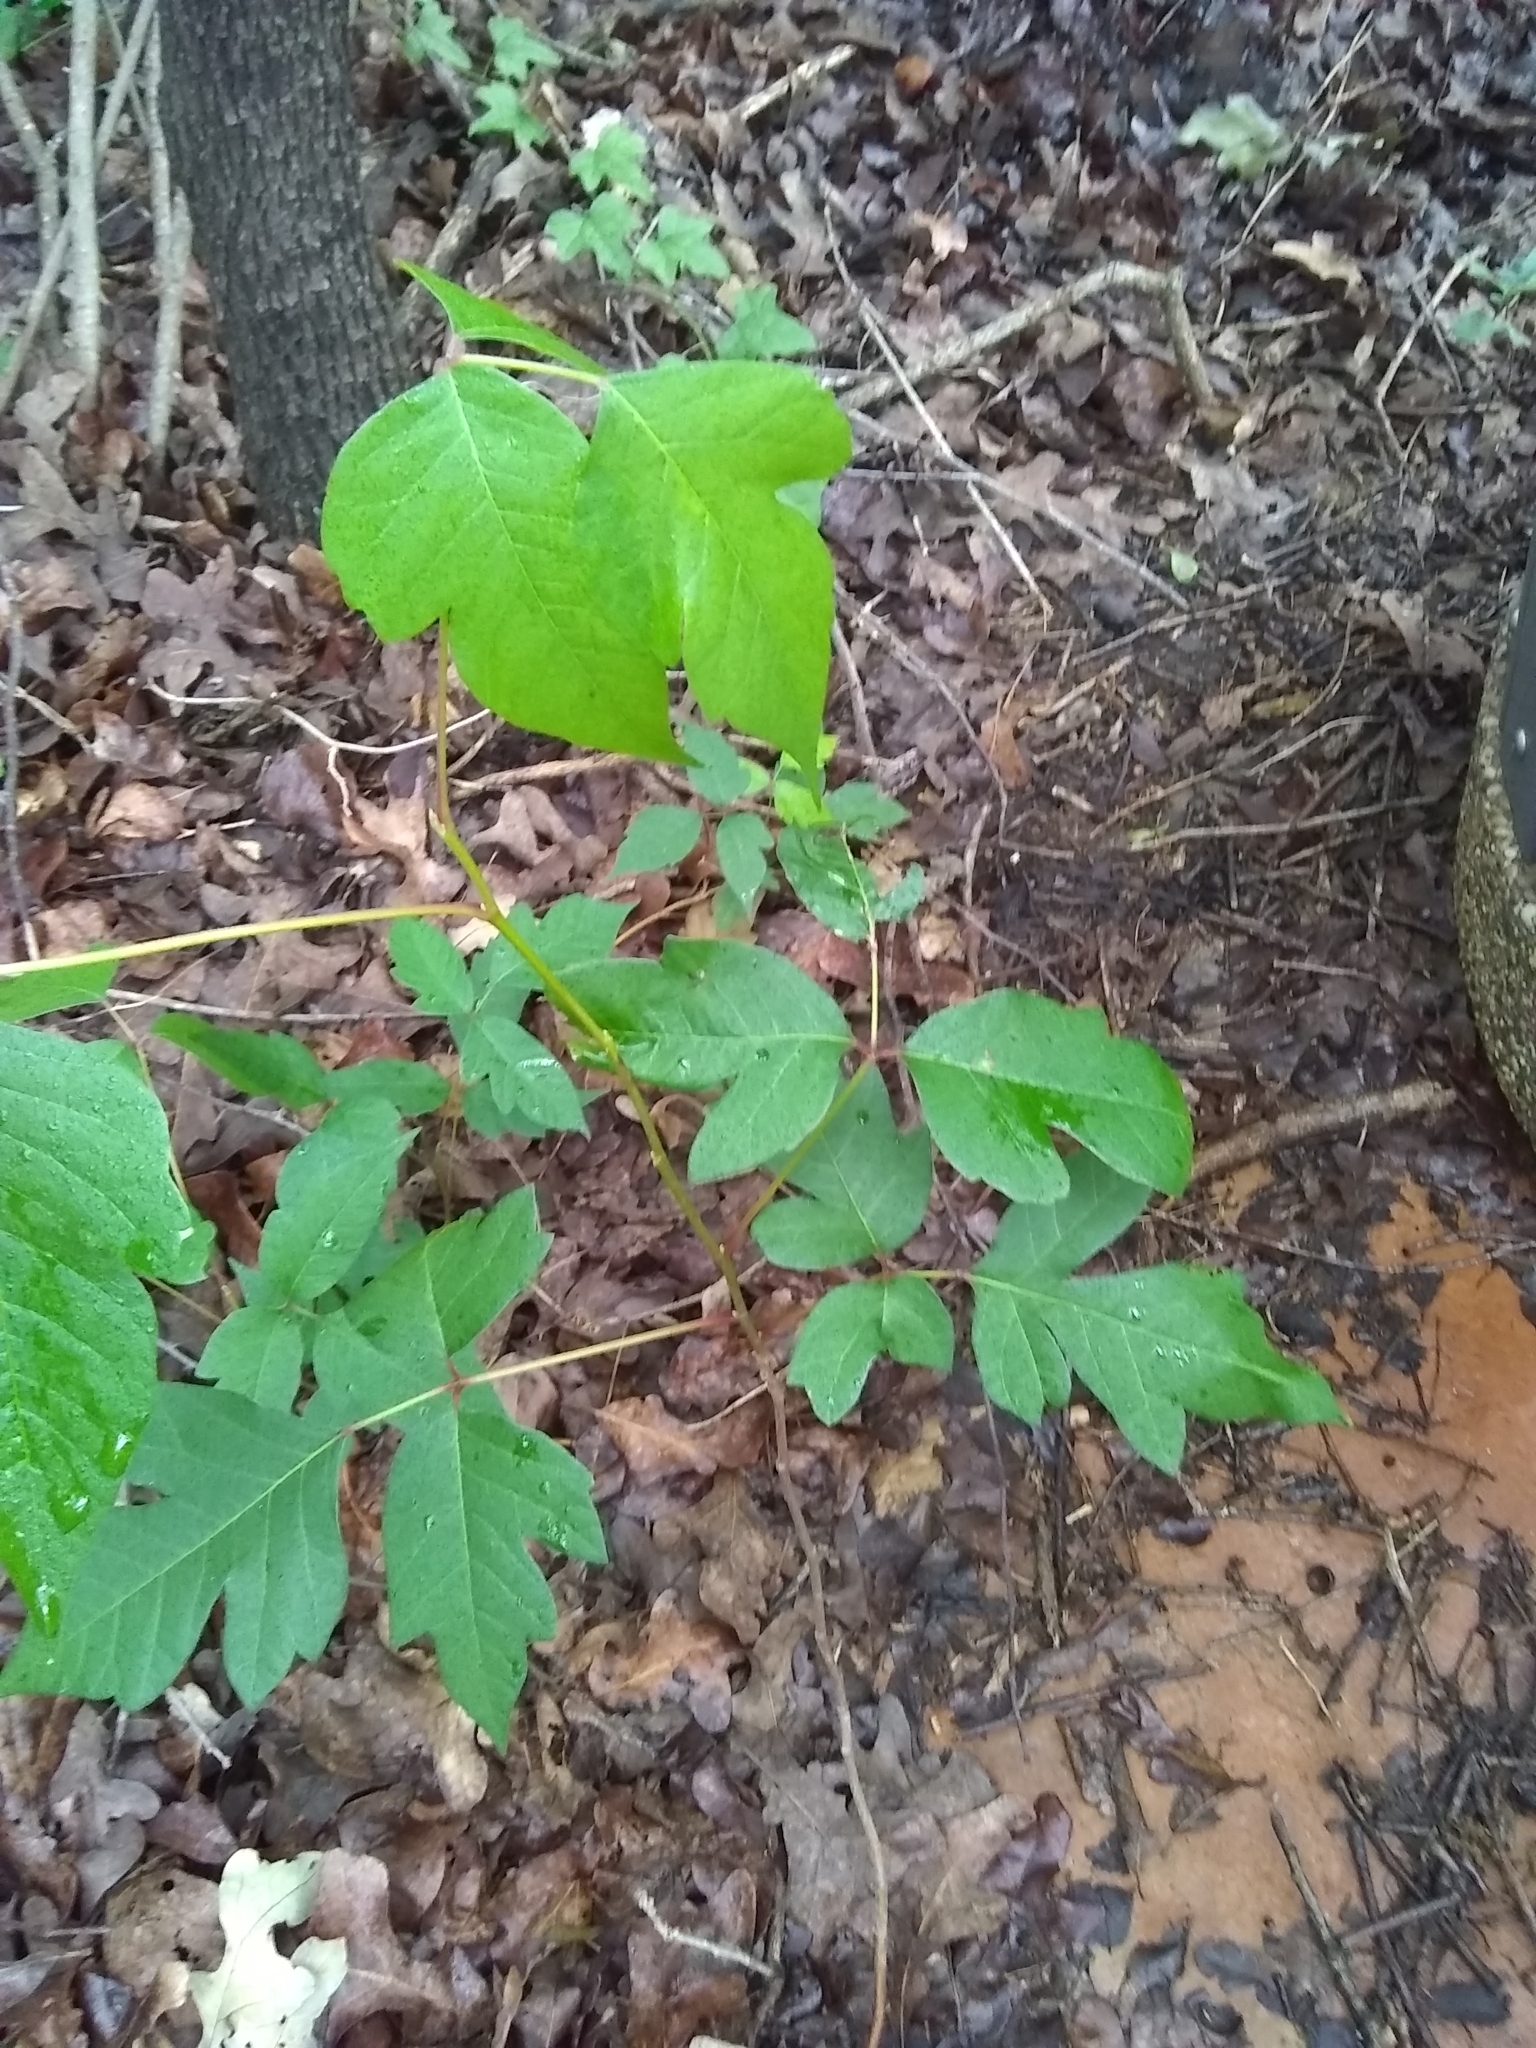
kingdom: Plantae
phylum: Tracheophyta
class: Magnoliopsida
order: Sapindales
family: Anacardiaceae
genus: Toxicodendron
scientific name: Toxicodendron radicans
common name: Poison ivy
